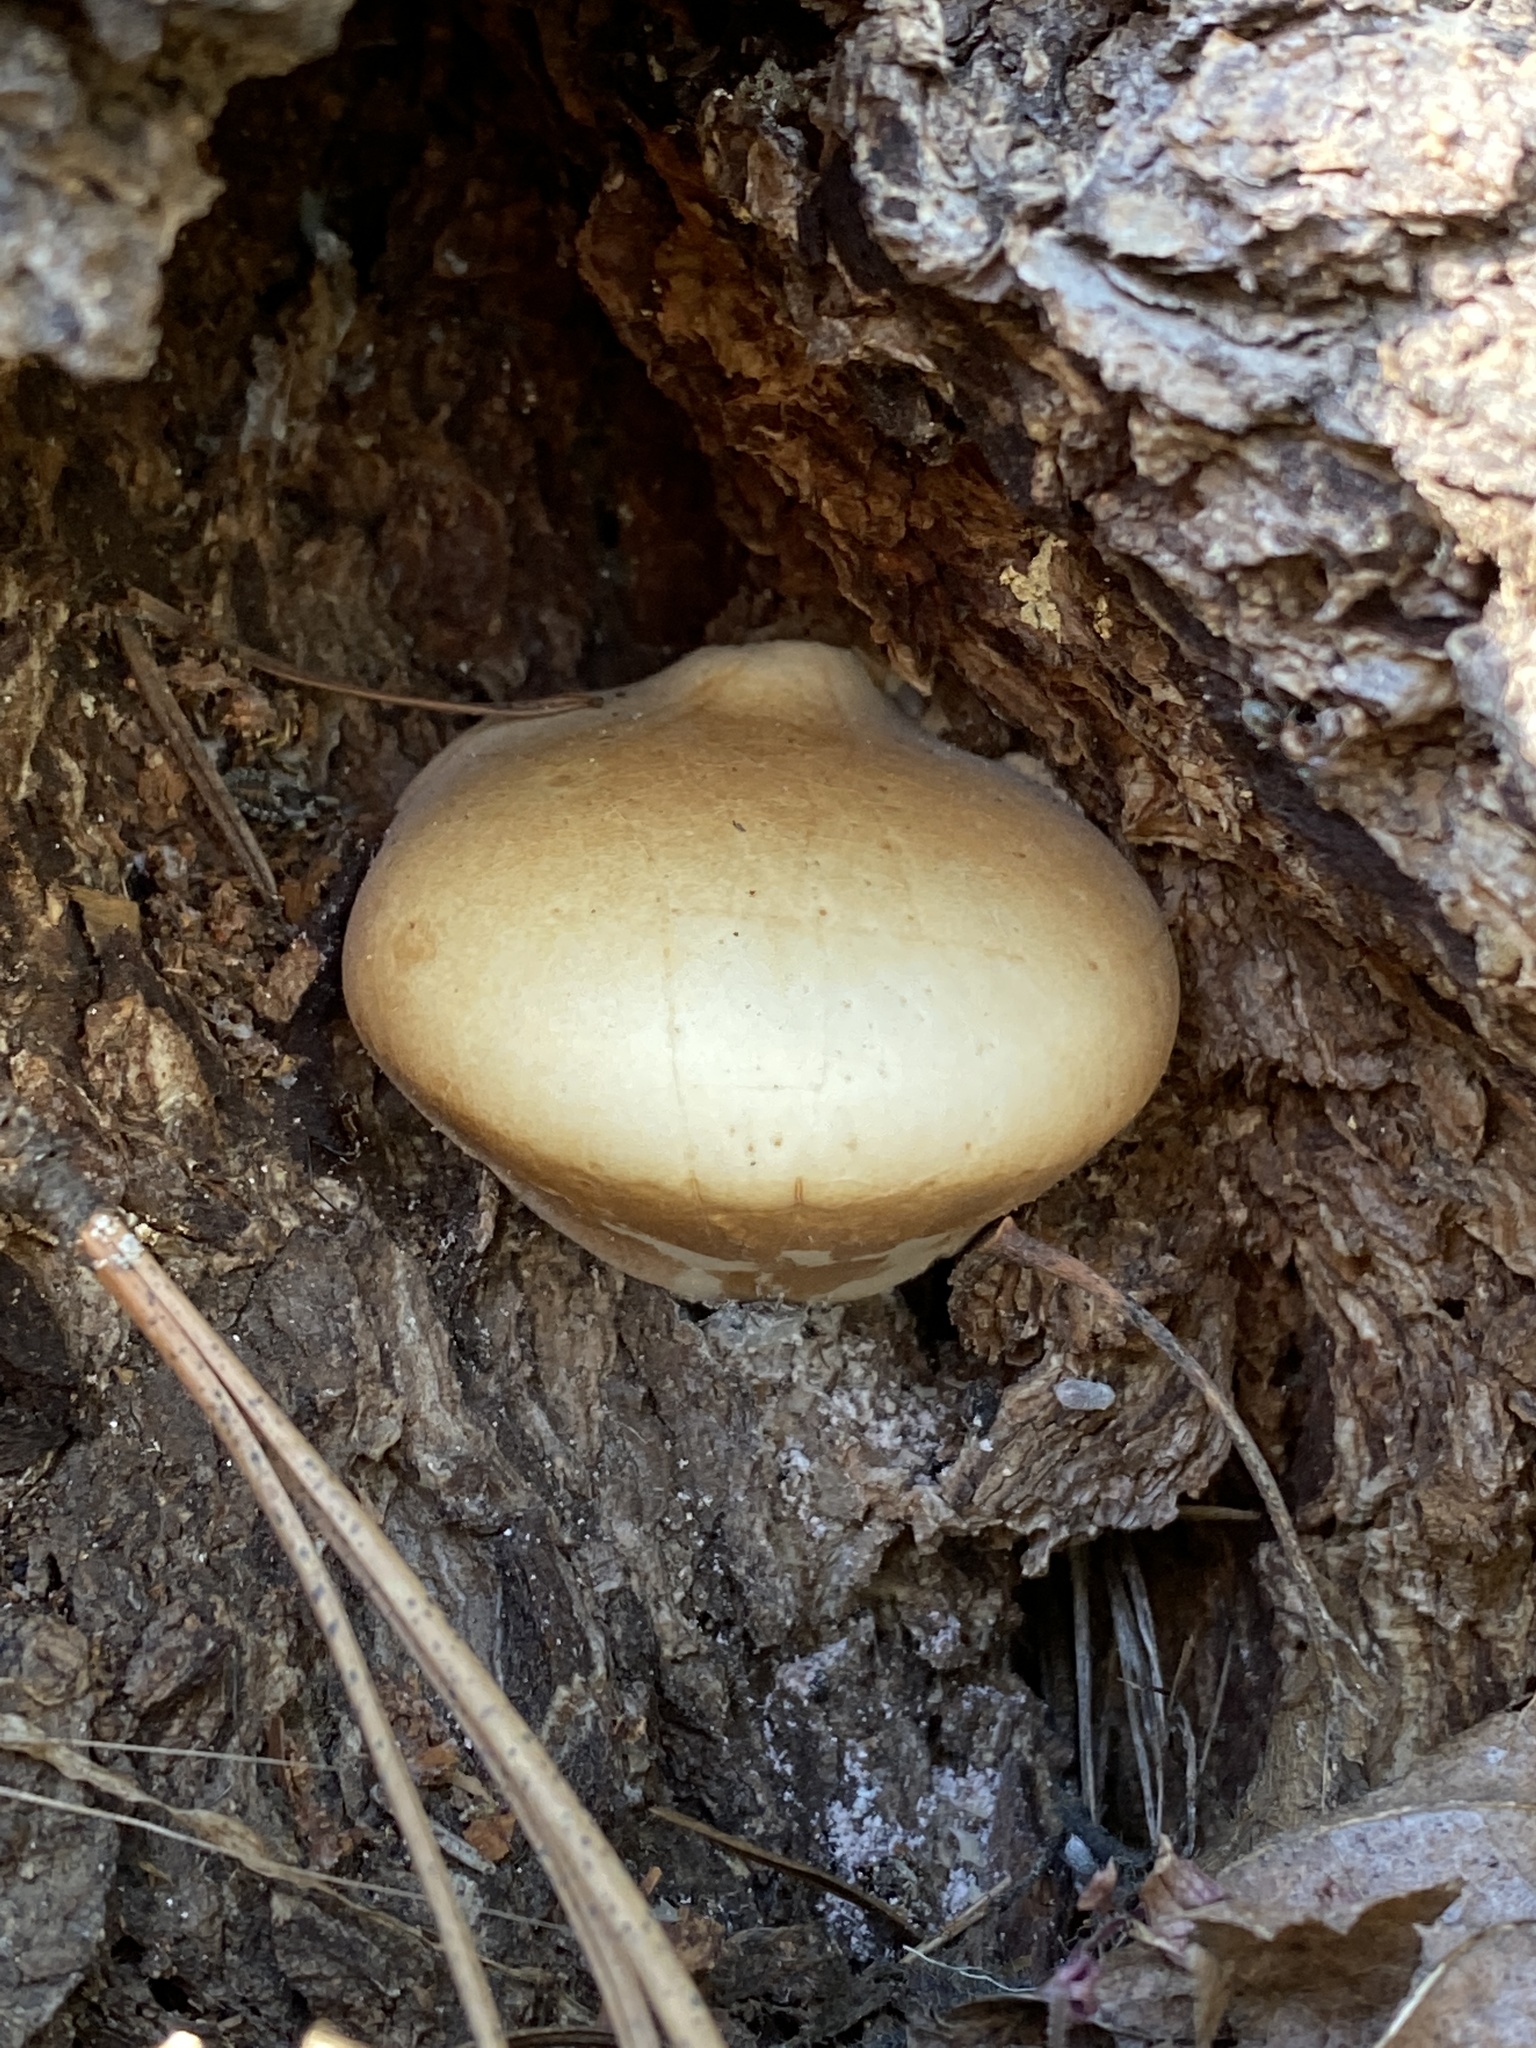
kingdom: Fungi
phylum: Basidiomycota
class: Agaricomycetes
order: Polyporales
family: Polyporaceae
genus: Cryptoporus
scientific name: Cryptoporus volvatus
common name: Veiled polypore
